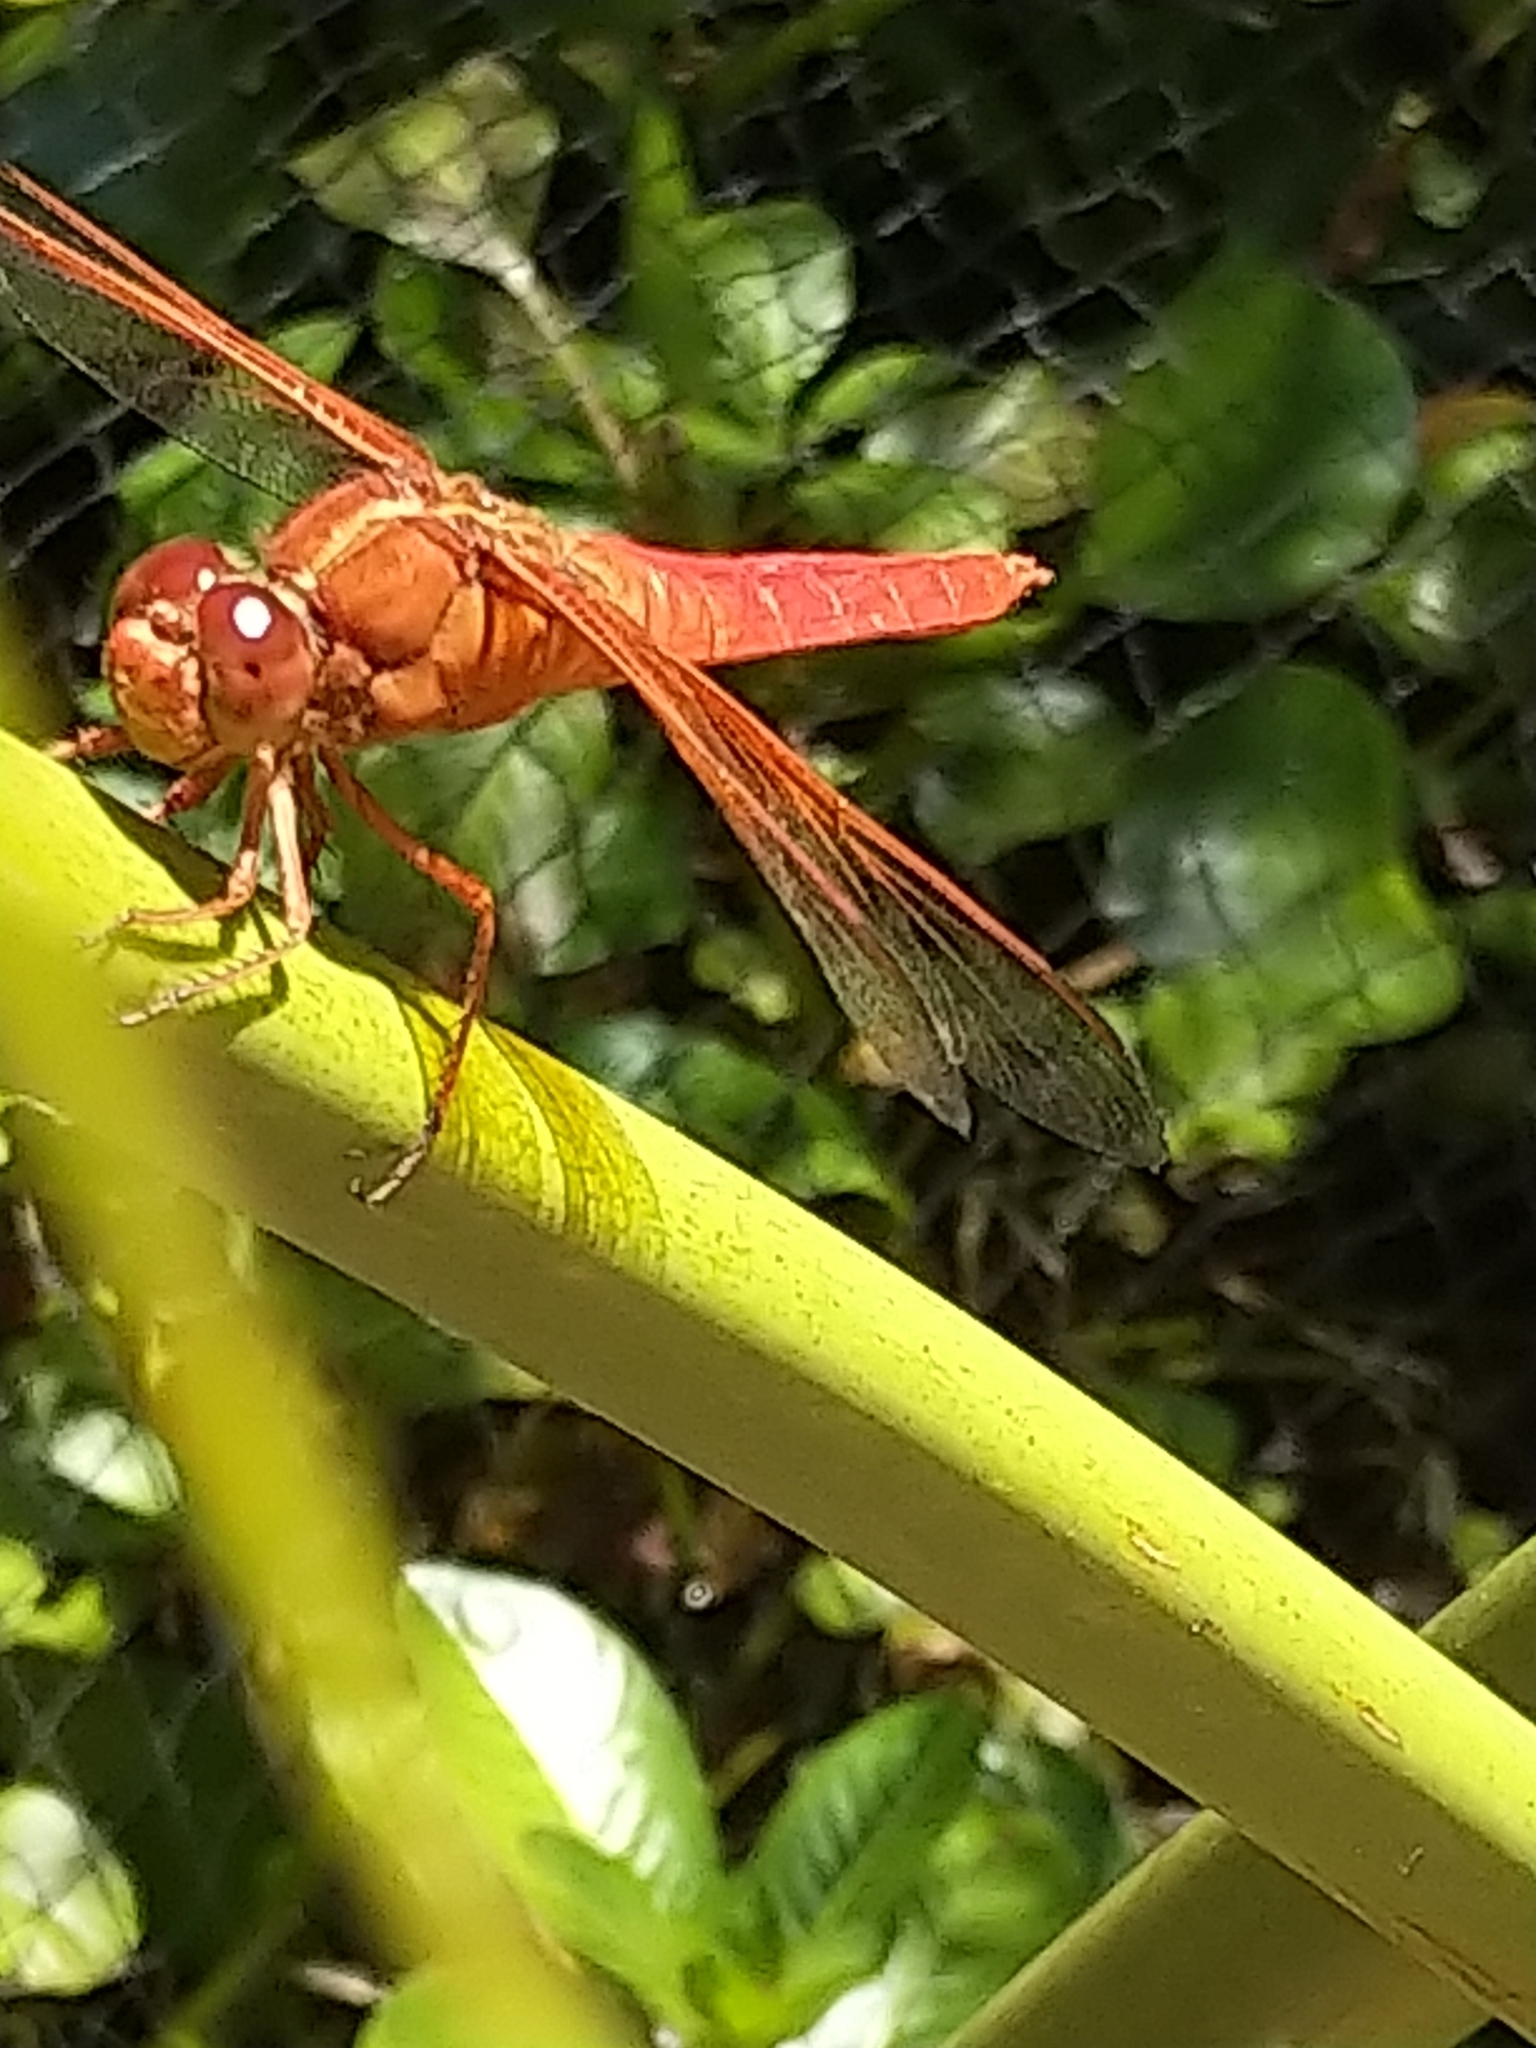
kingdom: Animalia
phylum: Arthropoda
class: Insecta
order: Odonata
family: Libellulidae
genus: Libellula
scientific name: Libellula saturata
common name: Flame skimmer
